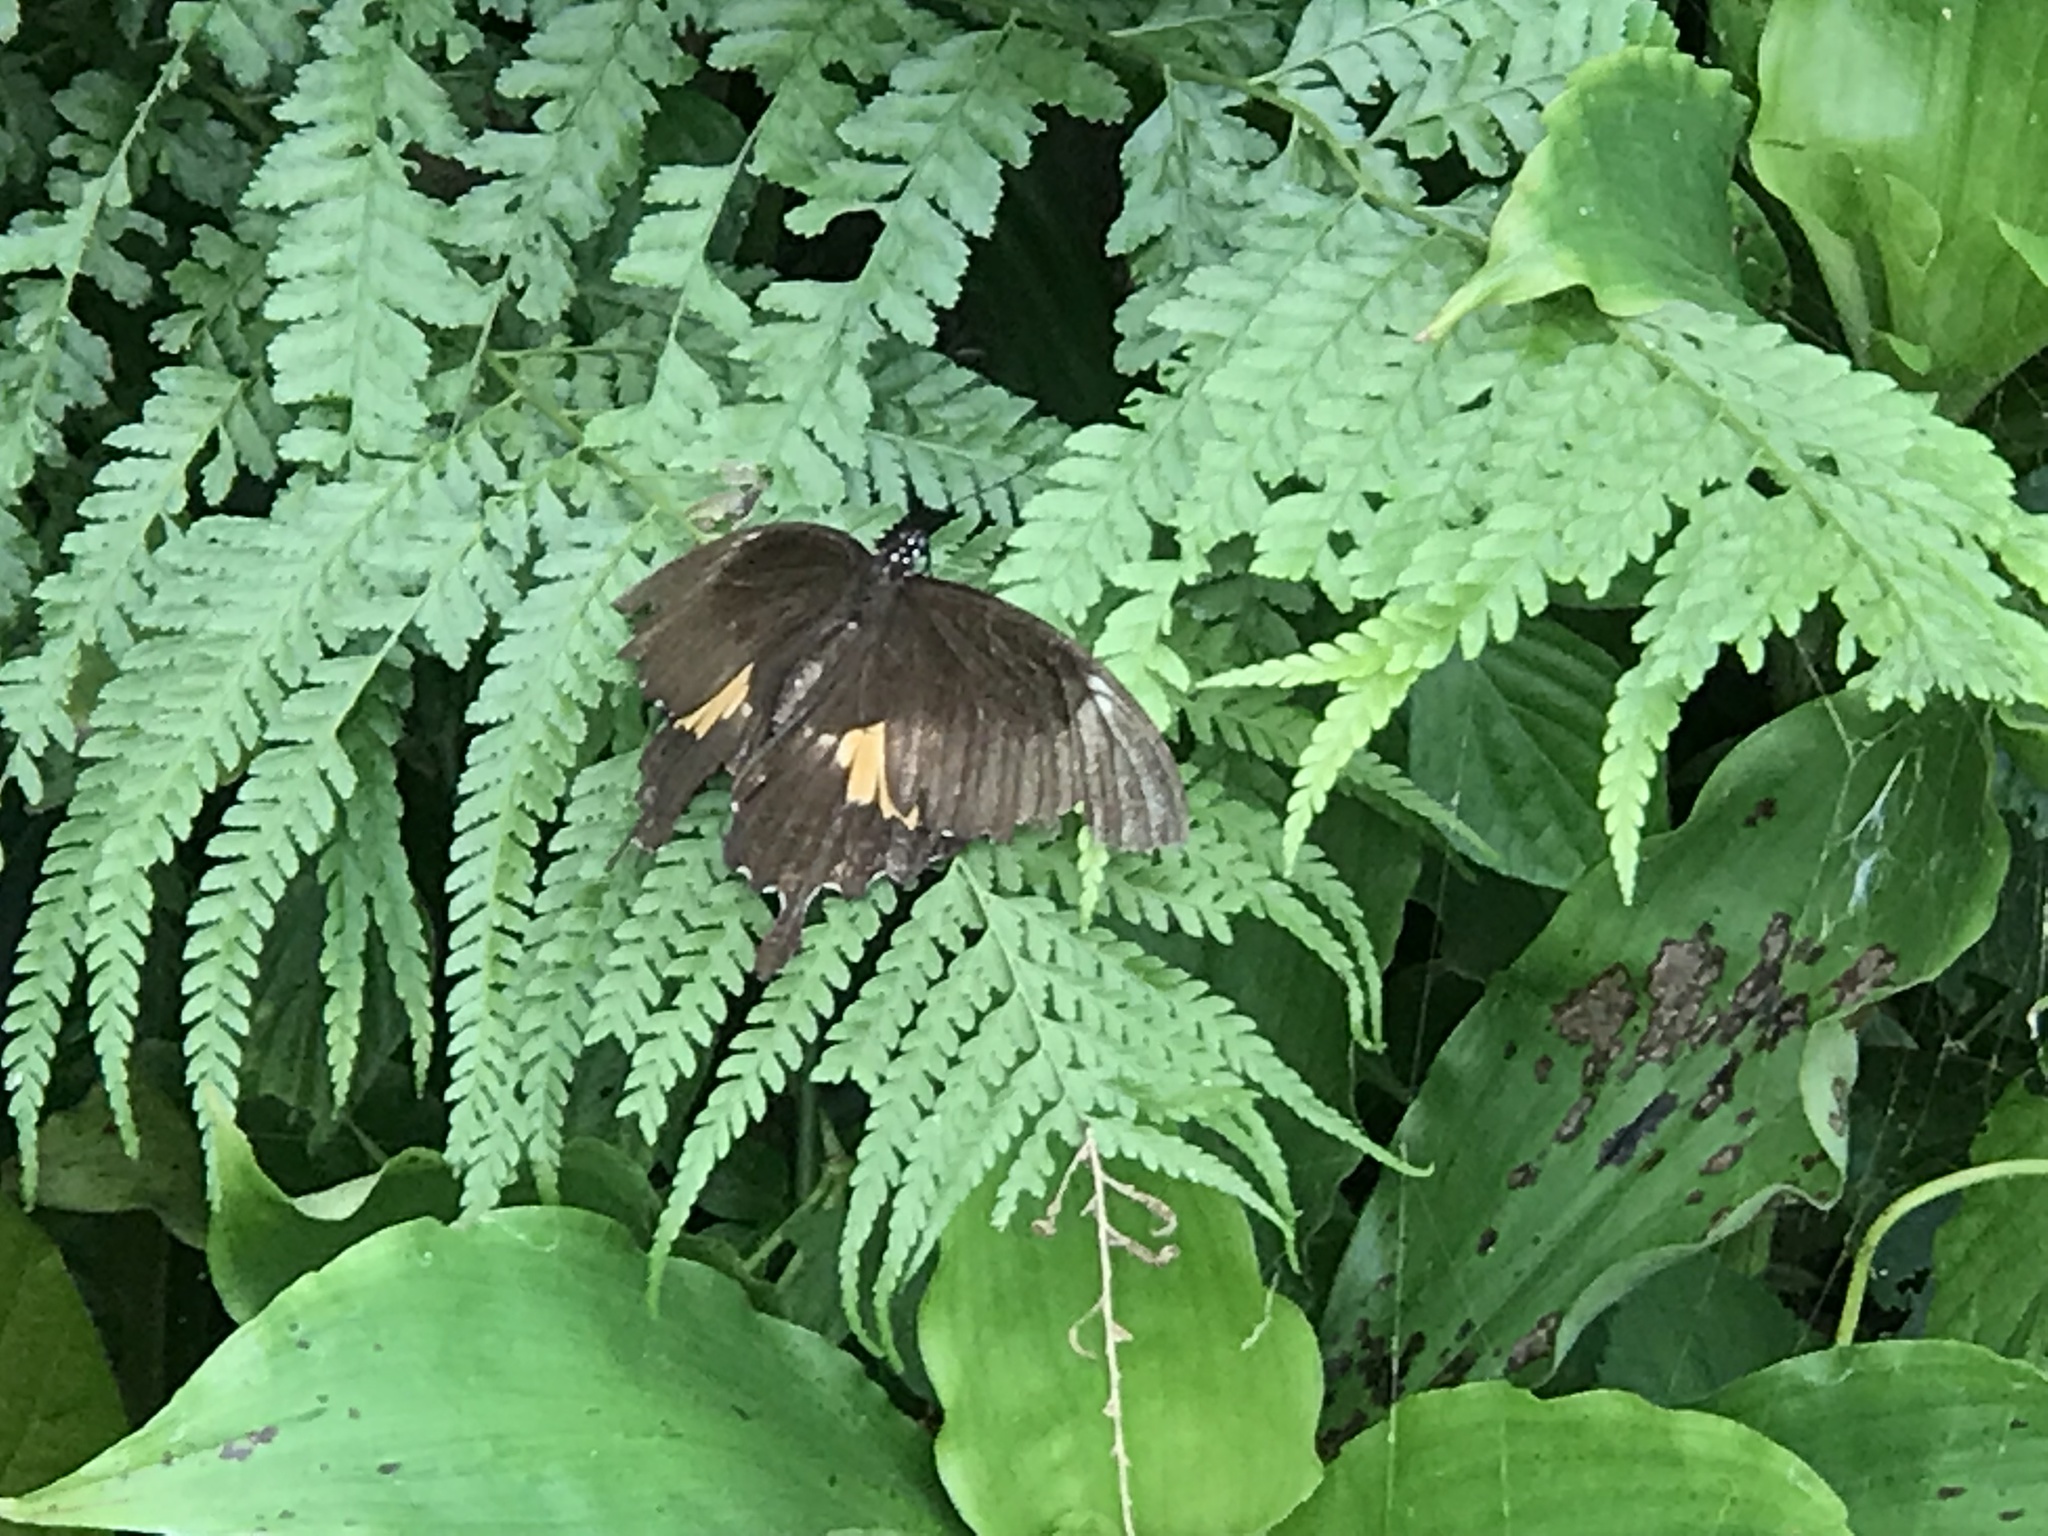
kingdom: Animalia
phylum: Arthropoda
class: Insecta
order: Lepidoptera
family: Papilionidae
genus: Papilio
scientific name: Papilio nephelus
